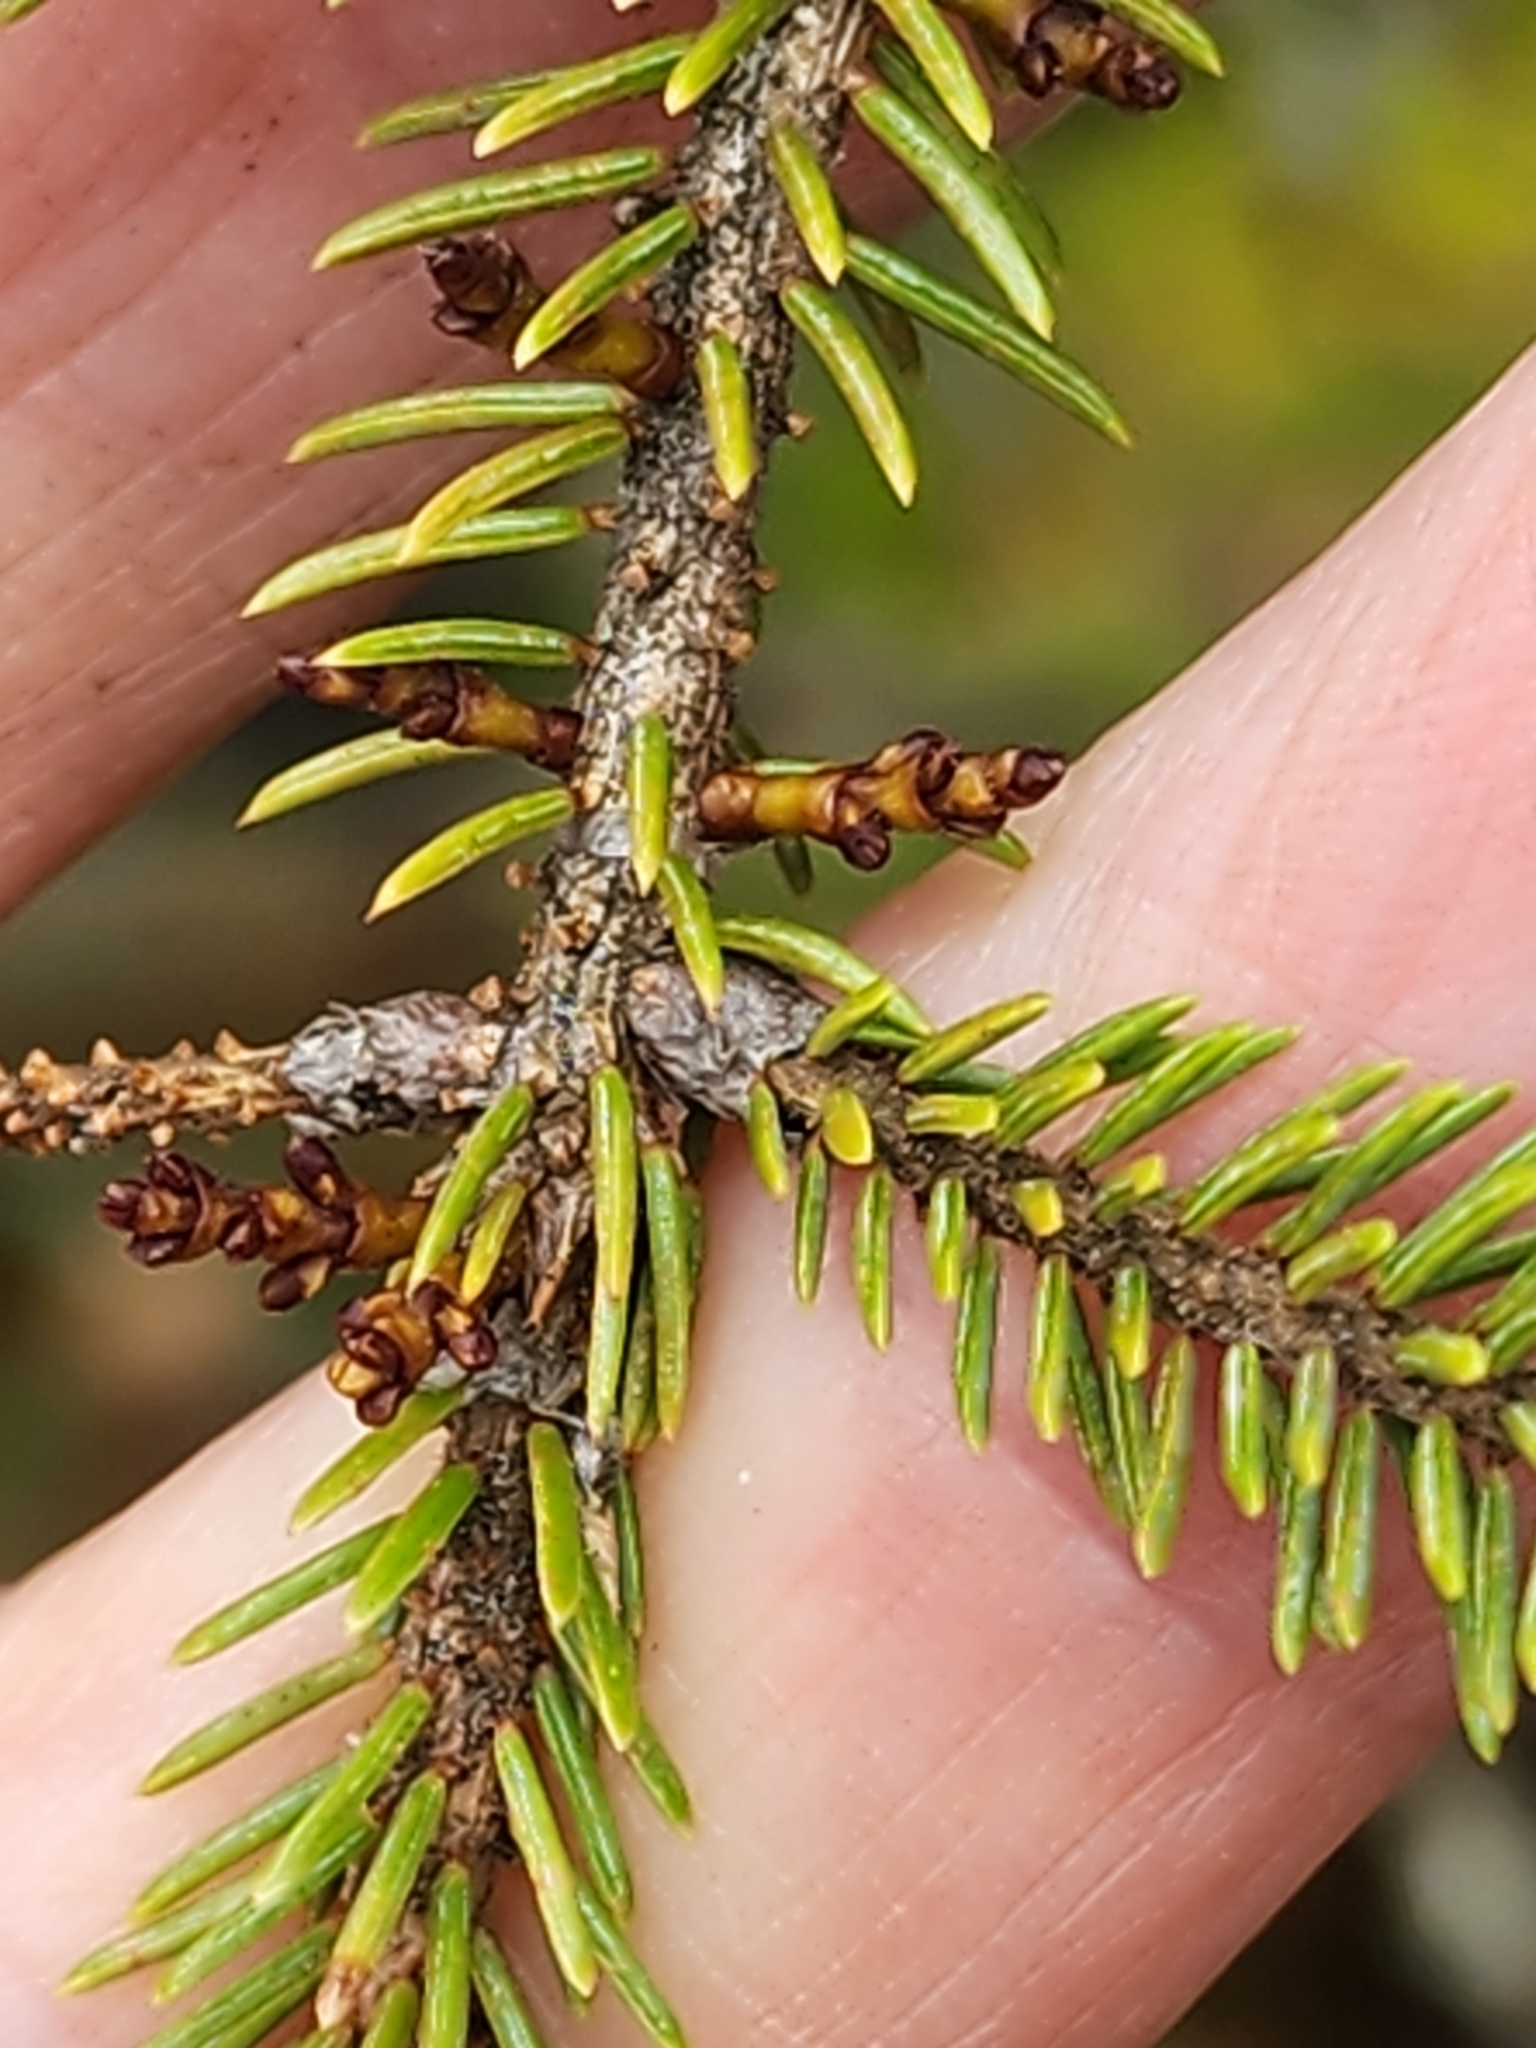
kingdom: Plantae
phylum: Tracheophyta
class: Magnoliopsida
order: Santalales
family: Viscaceae
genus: Arceuthobium
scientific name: Arceuthobium pusillum
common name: Dwarf-mistletoe
